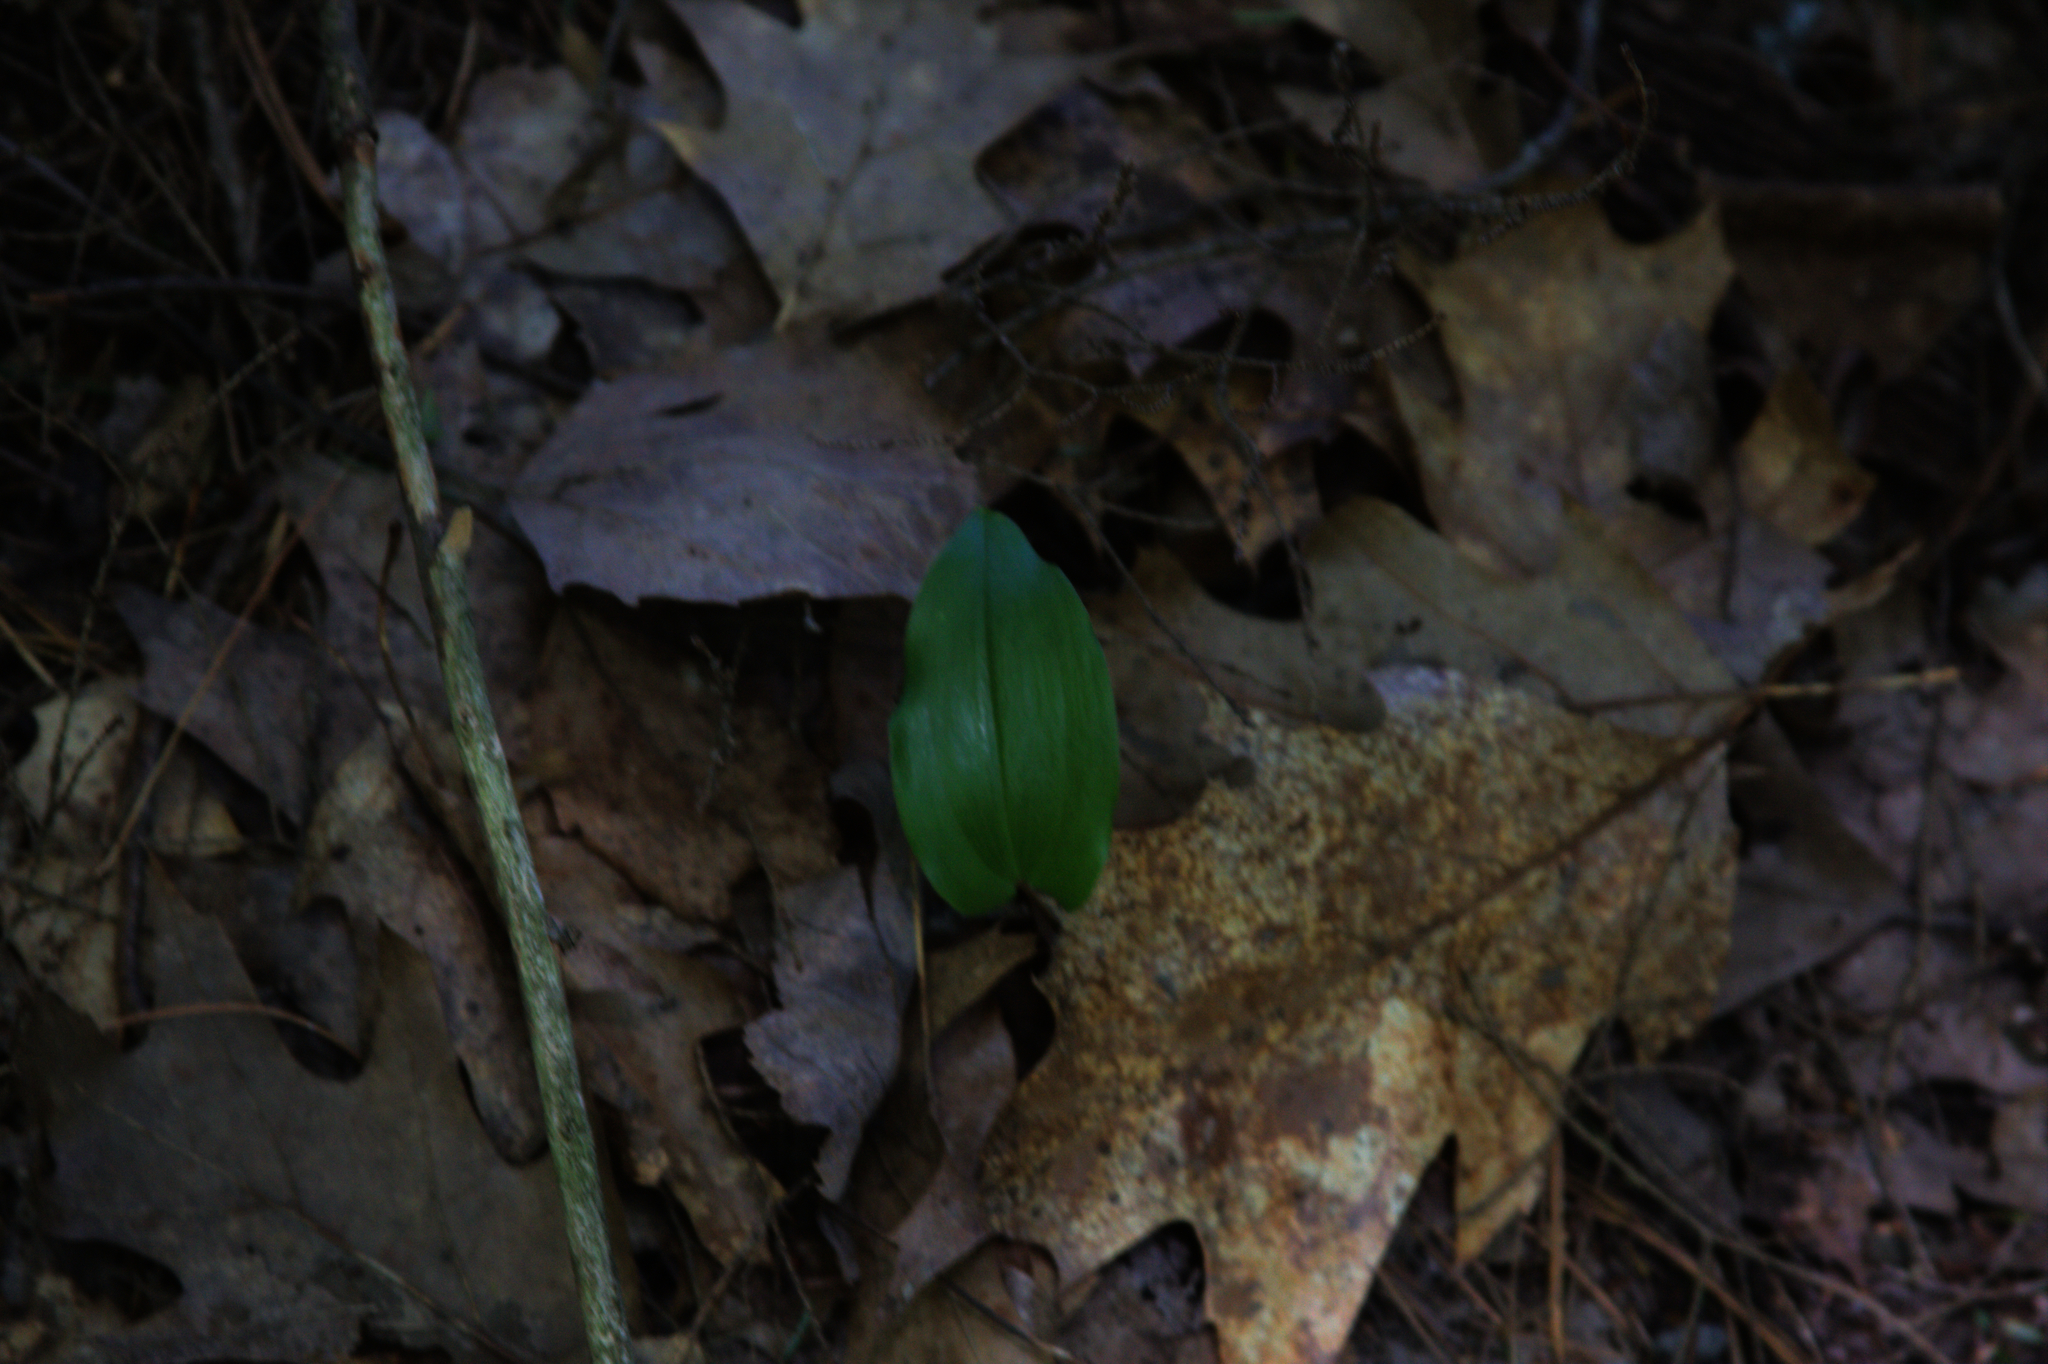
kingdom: Plantae
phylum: Tracheophyta
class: Liliopsida
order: Asparagales
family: Asparagaceae
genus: Maianthemum
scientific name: Maianthemum canadense
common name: False lily-of-the-valley
